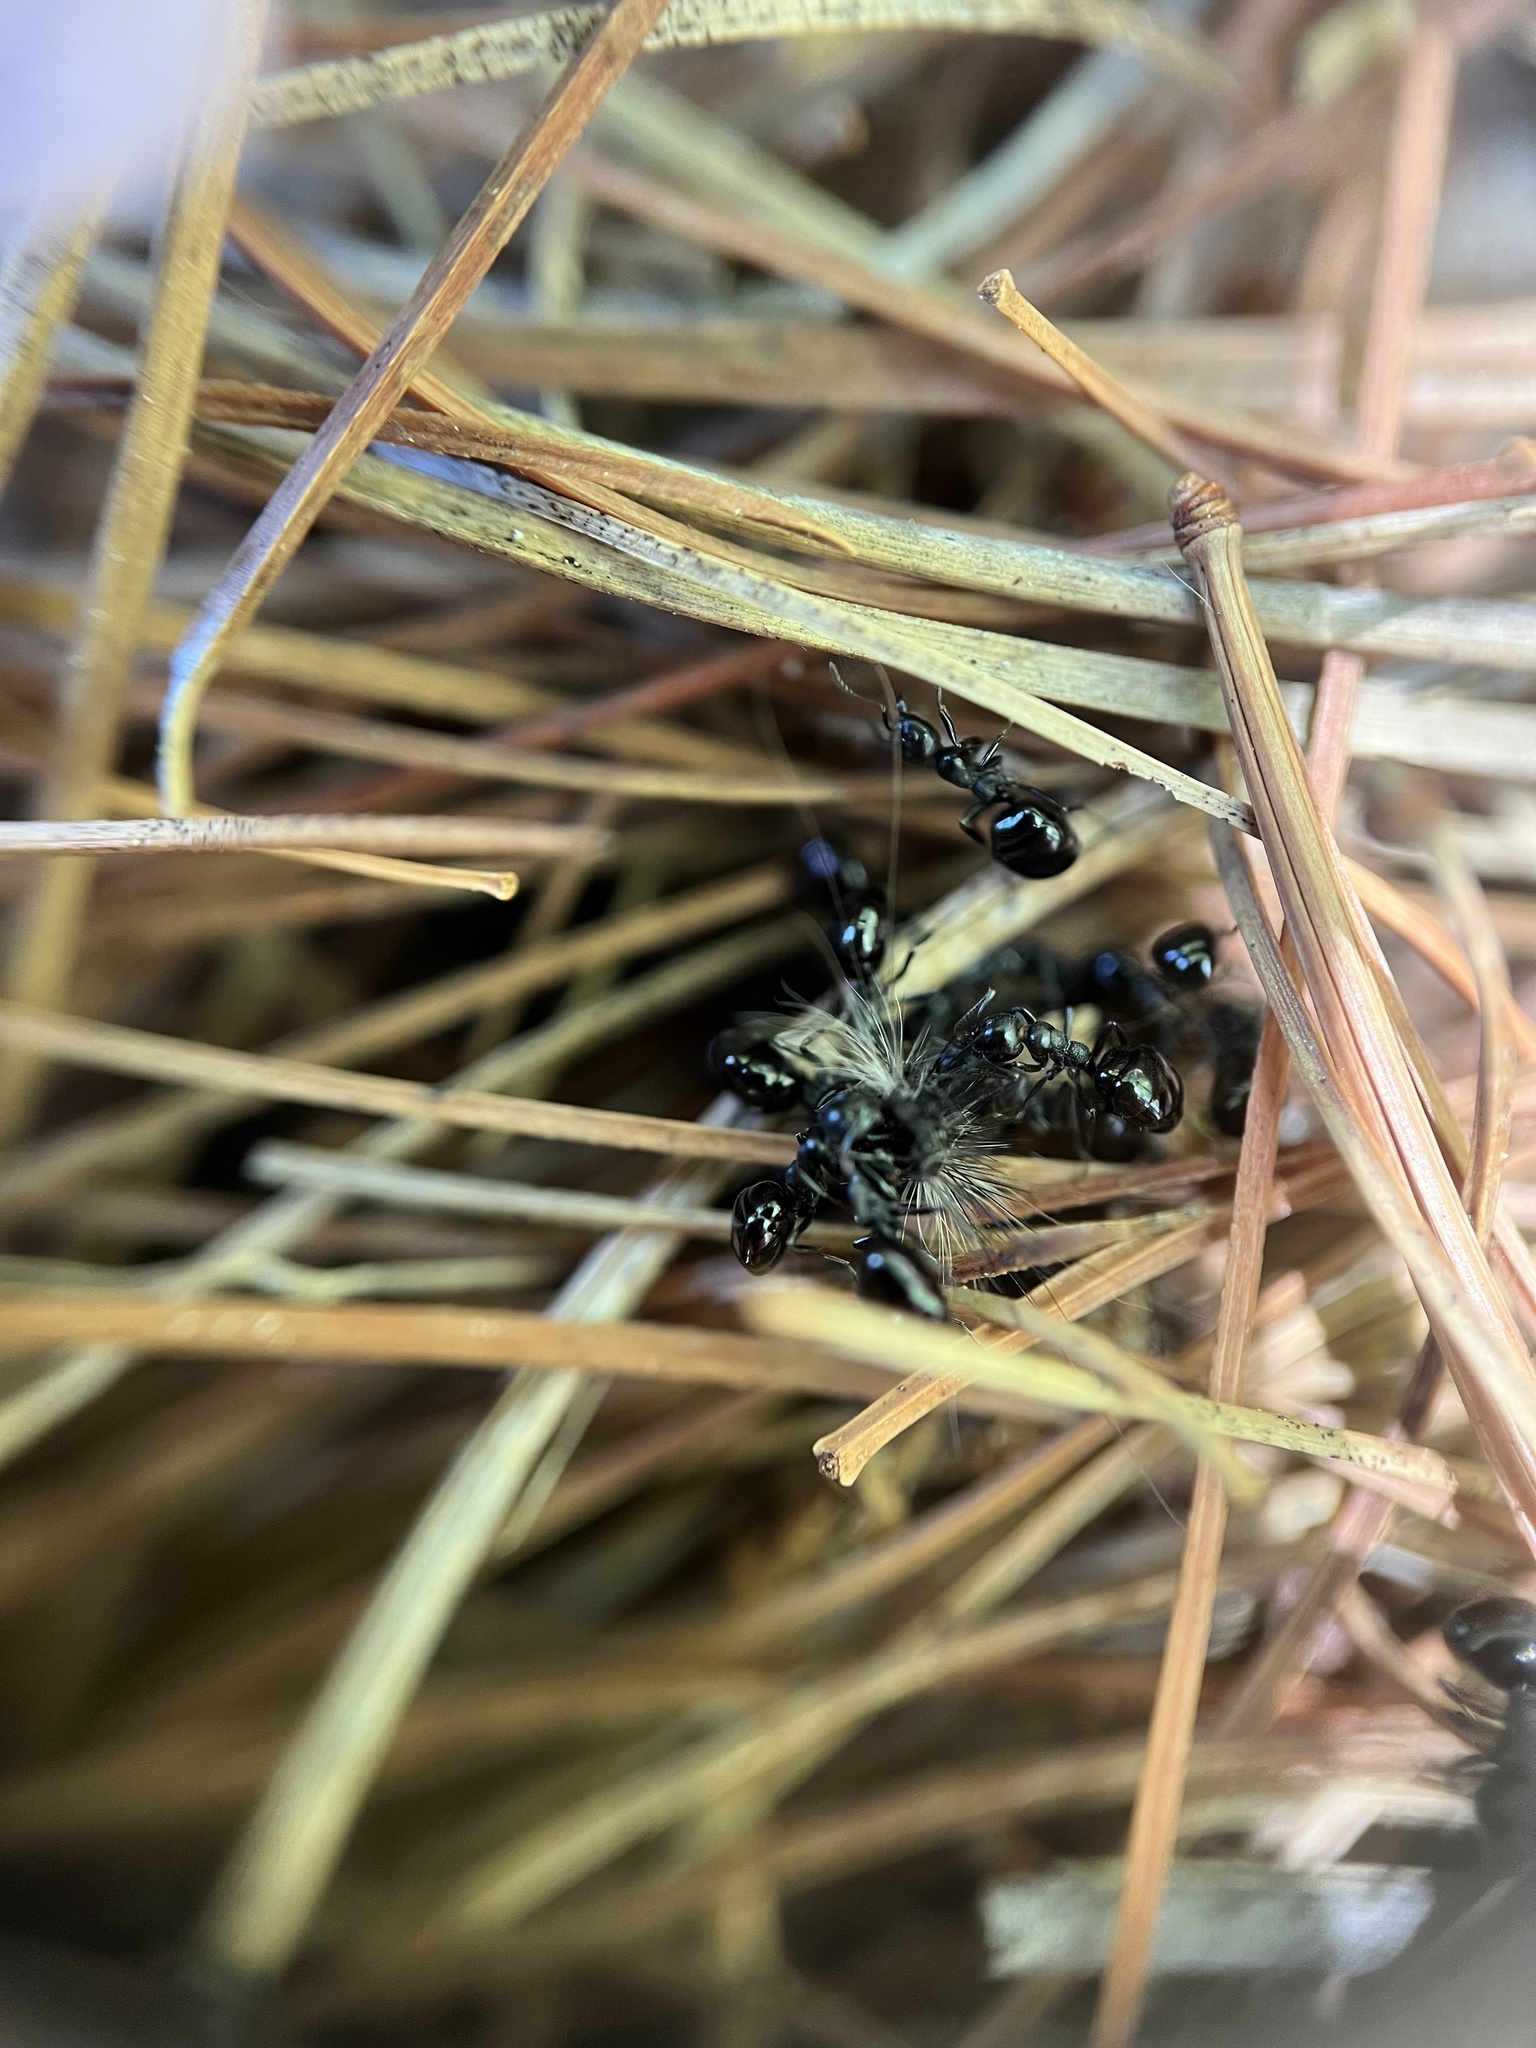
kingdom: Animalia
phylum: Arthropoda
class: Insecta
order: Hymenoptera
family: Formicidae
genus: Dolichoderus
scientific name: Dolichoderus taschenbergi
